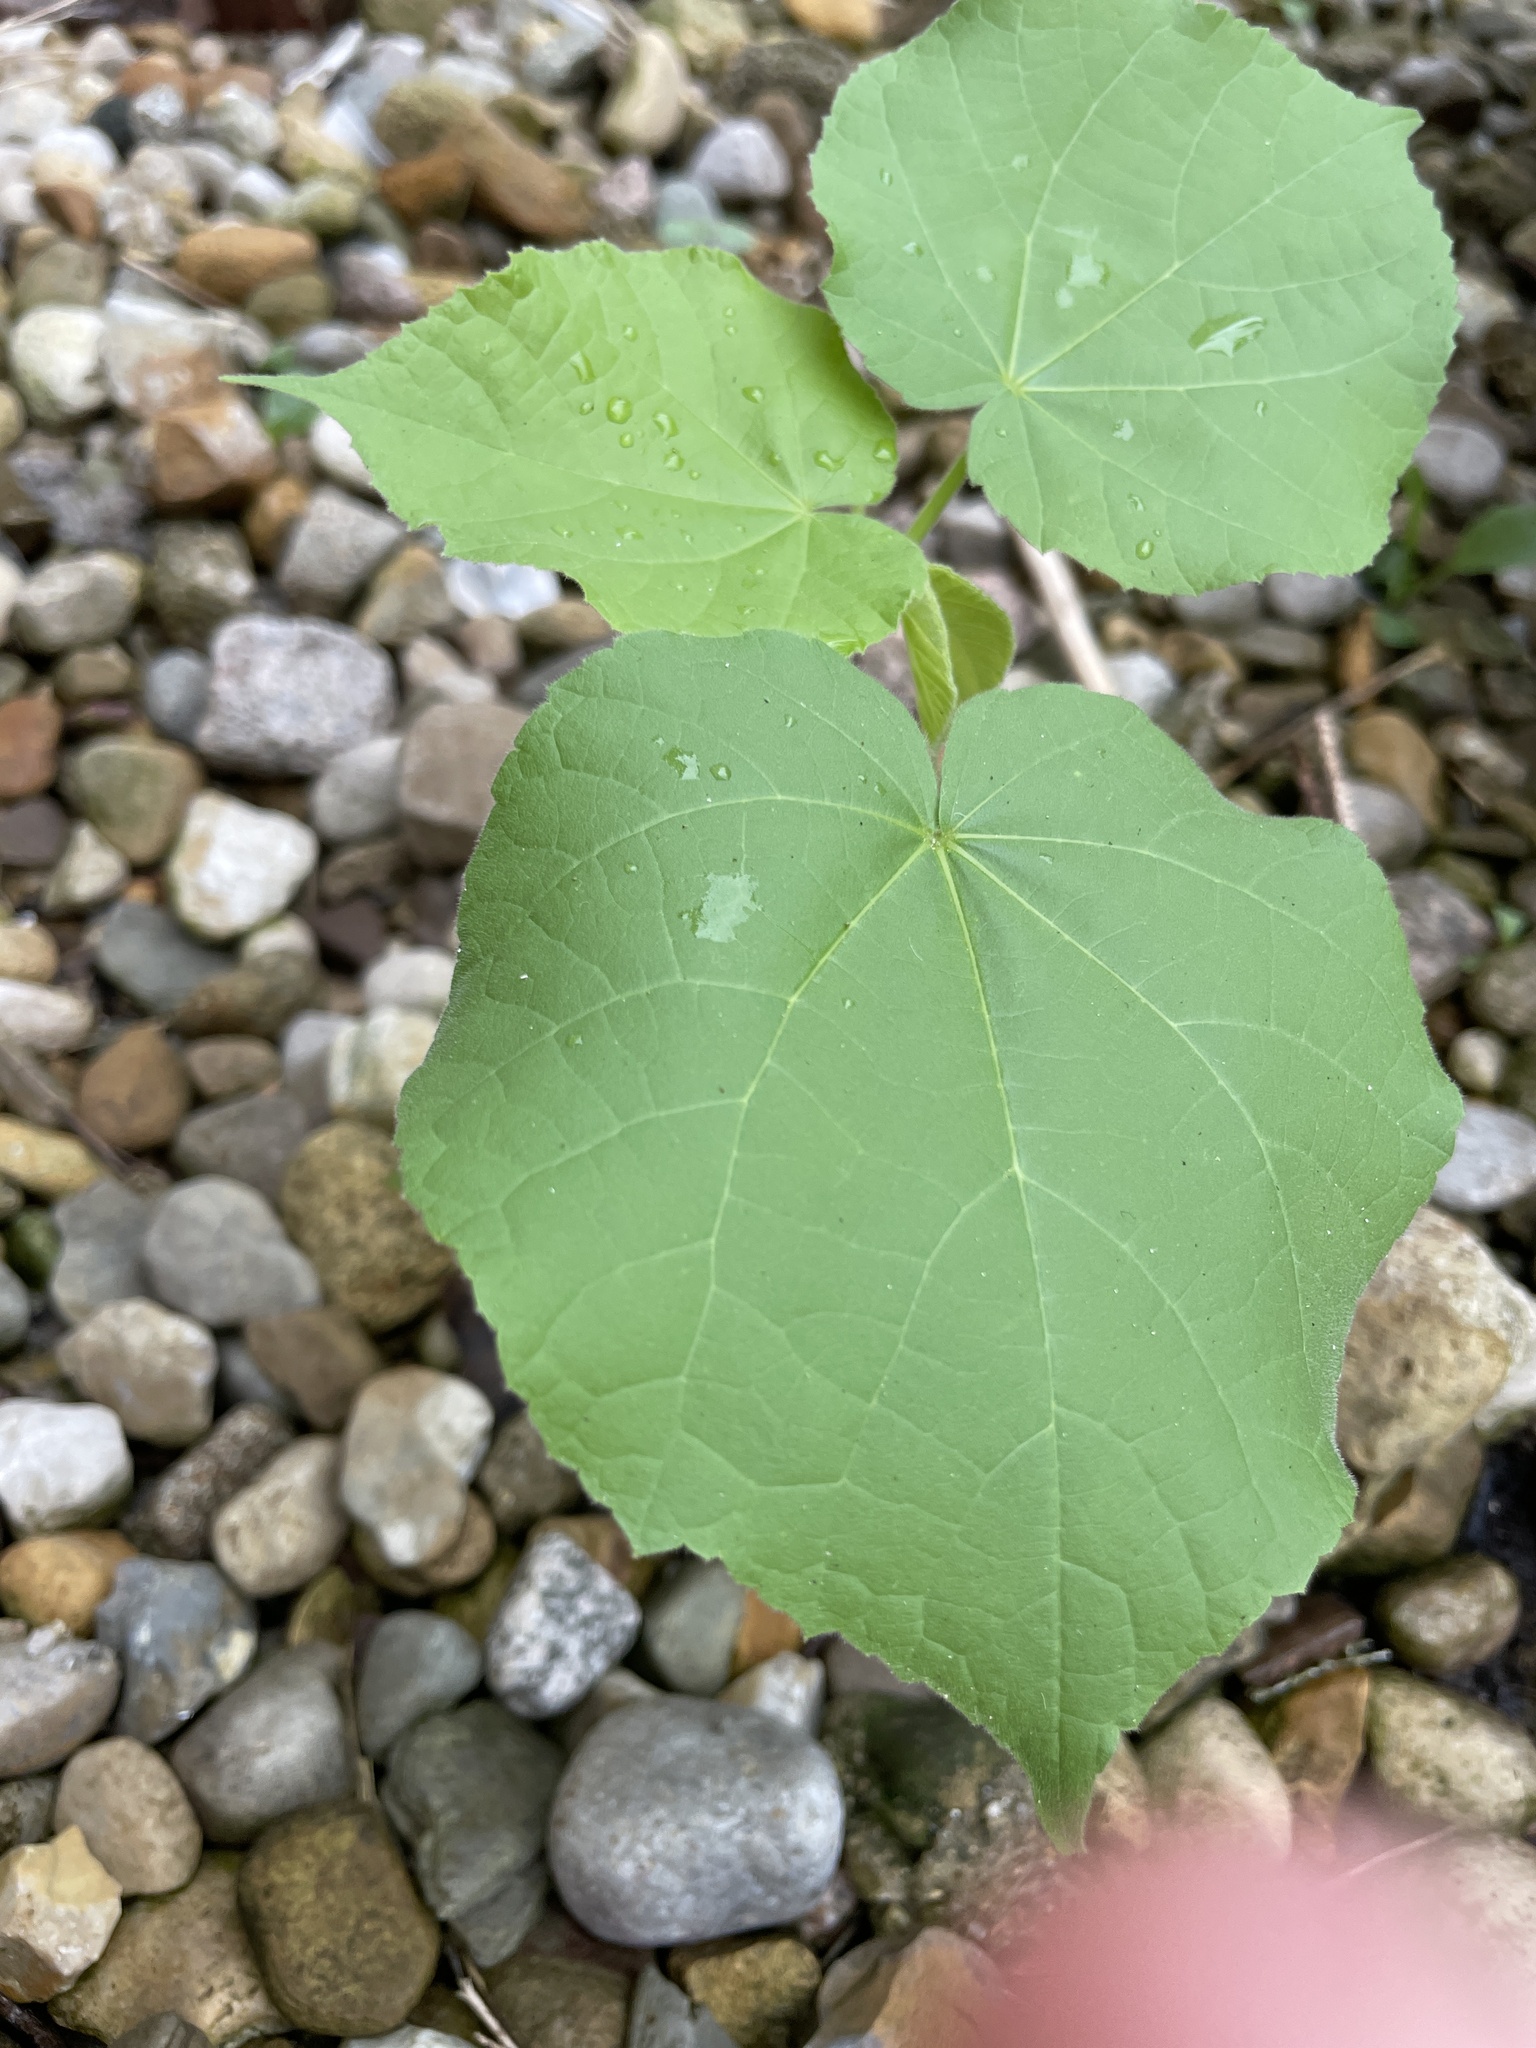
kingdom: Plantae
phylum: Tracheophyta
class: Magnoliopsida
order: Malvales
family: Malvaceae
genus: Abutilon
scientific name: Abutilon theophrasti
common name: Velvetleaf
